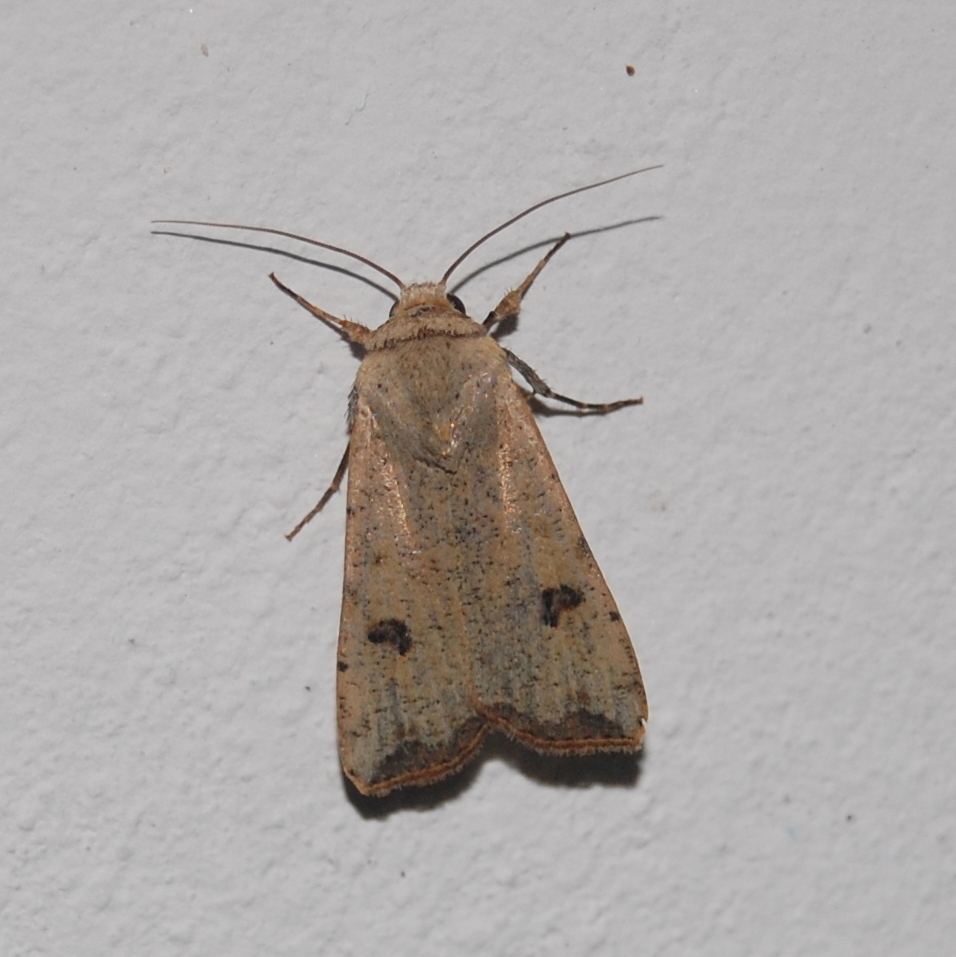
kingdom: Animalia
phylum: Arthropoda
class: Insecta
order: Lepidoptera
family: Noctuidae
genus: Anicla
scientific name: Anicla infecta
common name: Green cutworm
